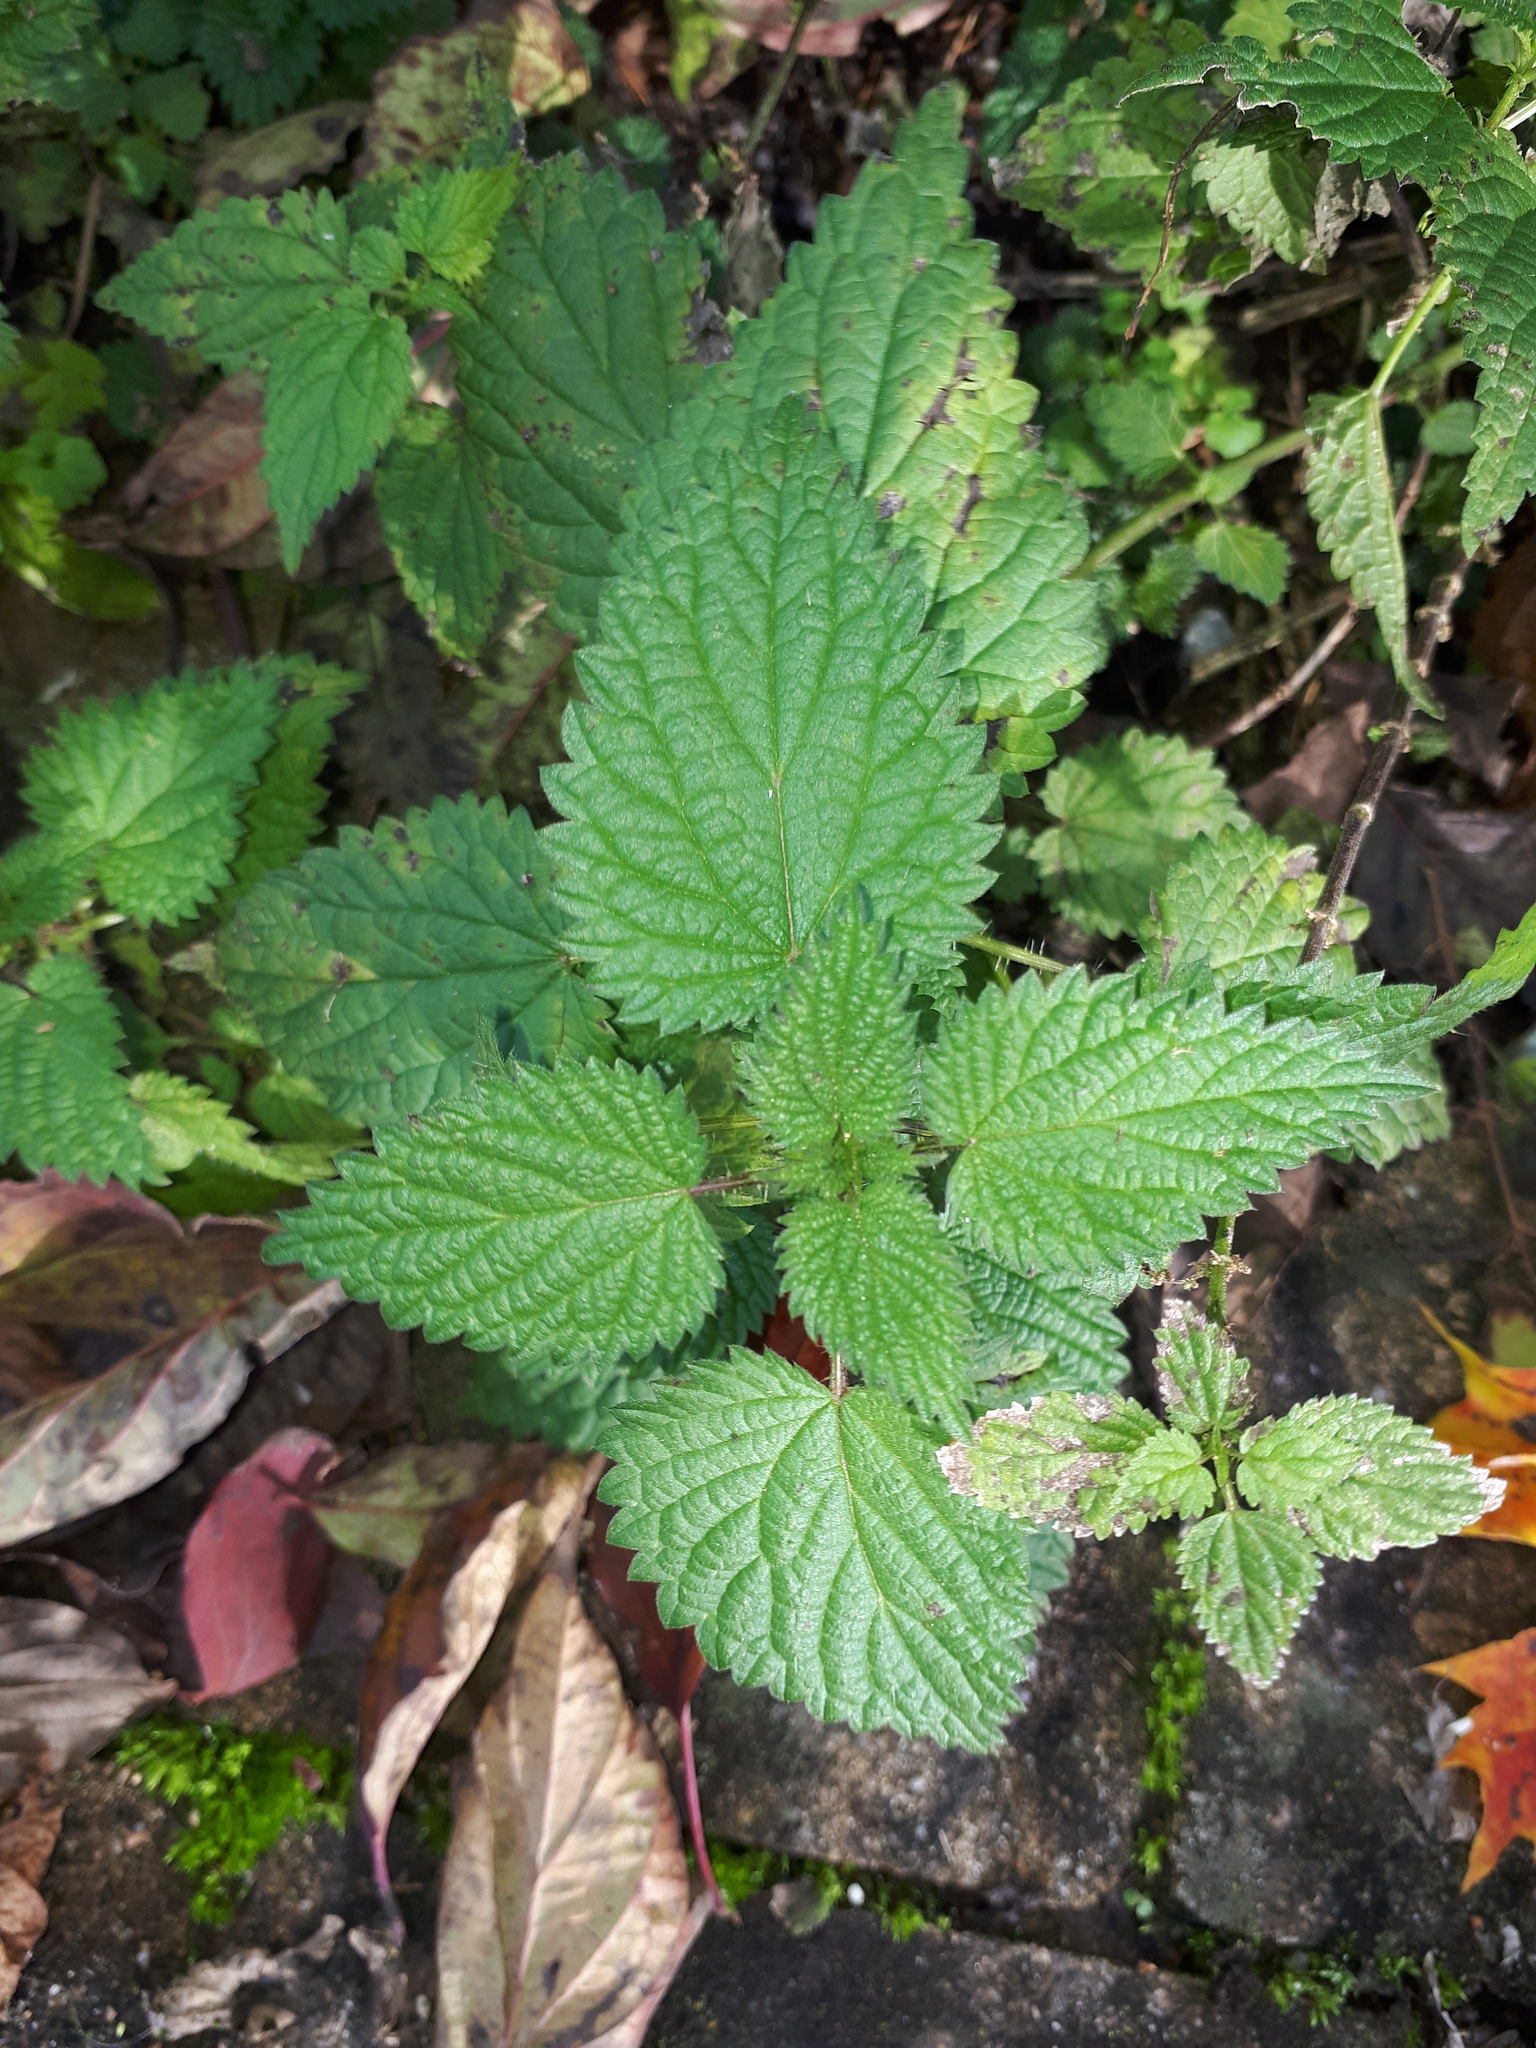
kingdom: Plantae
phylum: Tracheophyta
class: Magnoliopsida
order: Rosales
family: Urticaceae
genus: Urtica
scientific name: Urtica dioica
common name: Common nettle
